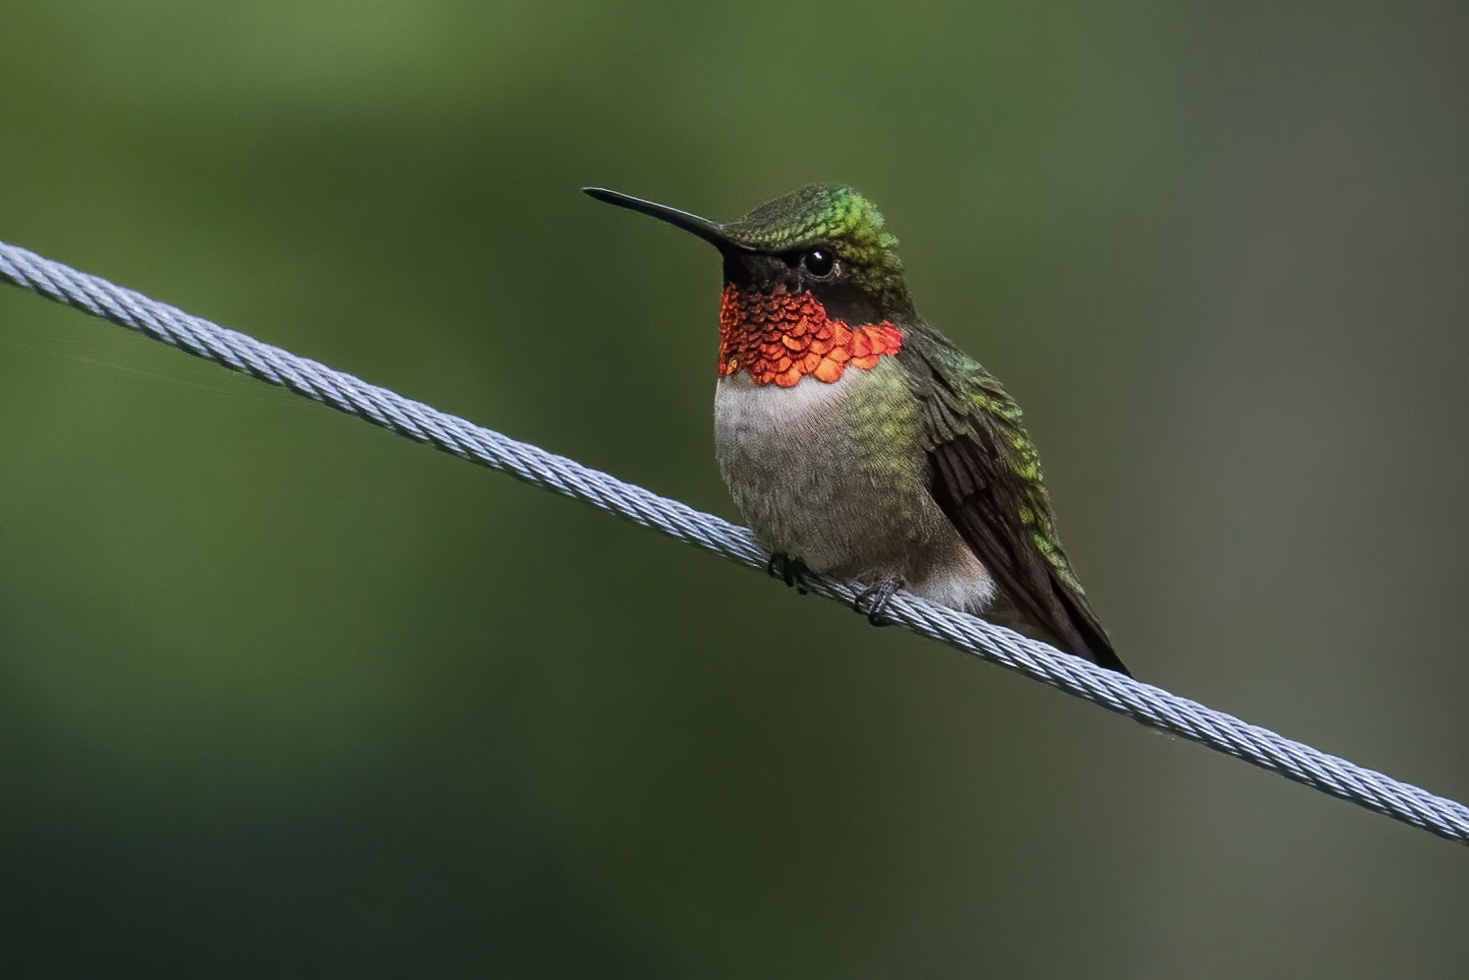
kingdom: Animalia
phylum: Chordata
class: Aves
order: Apodiformes
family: Trochilidae
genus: Archilochus
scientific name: Archilochus colubris
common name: Ruby-throated hummingbird
